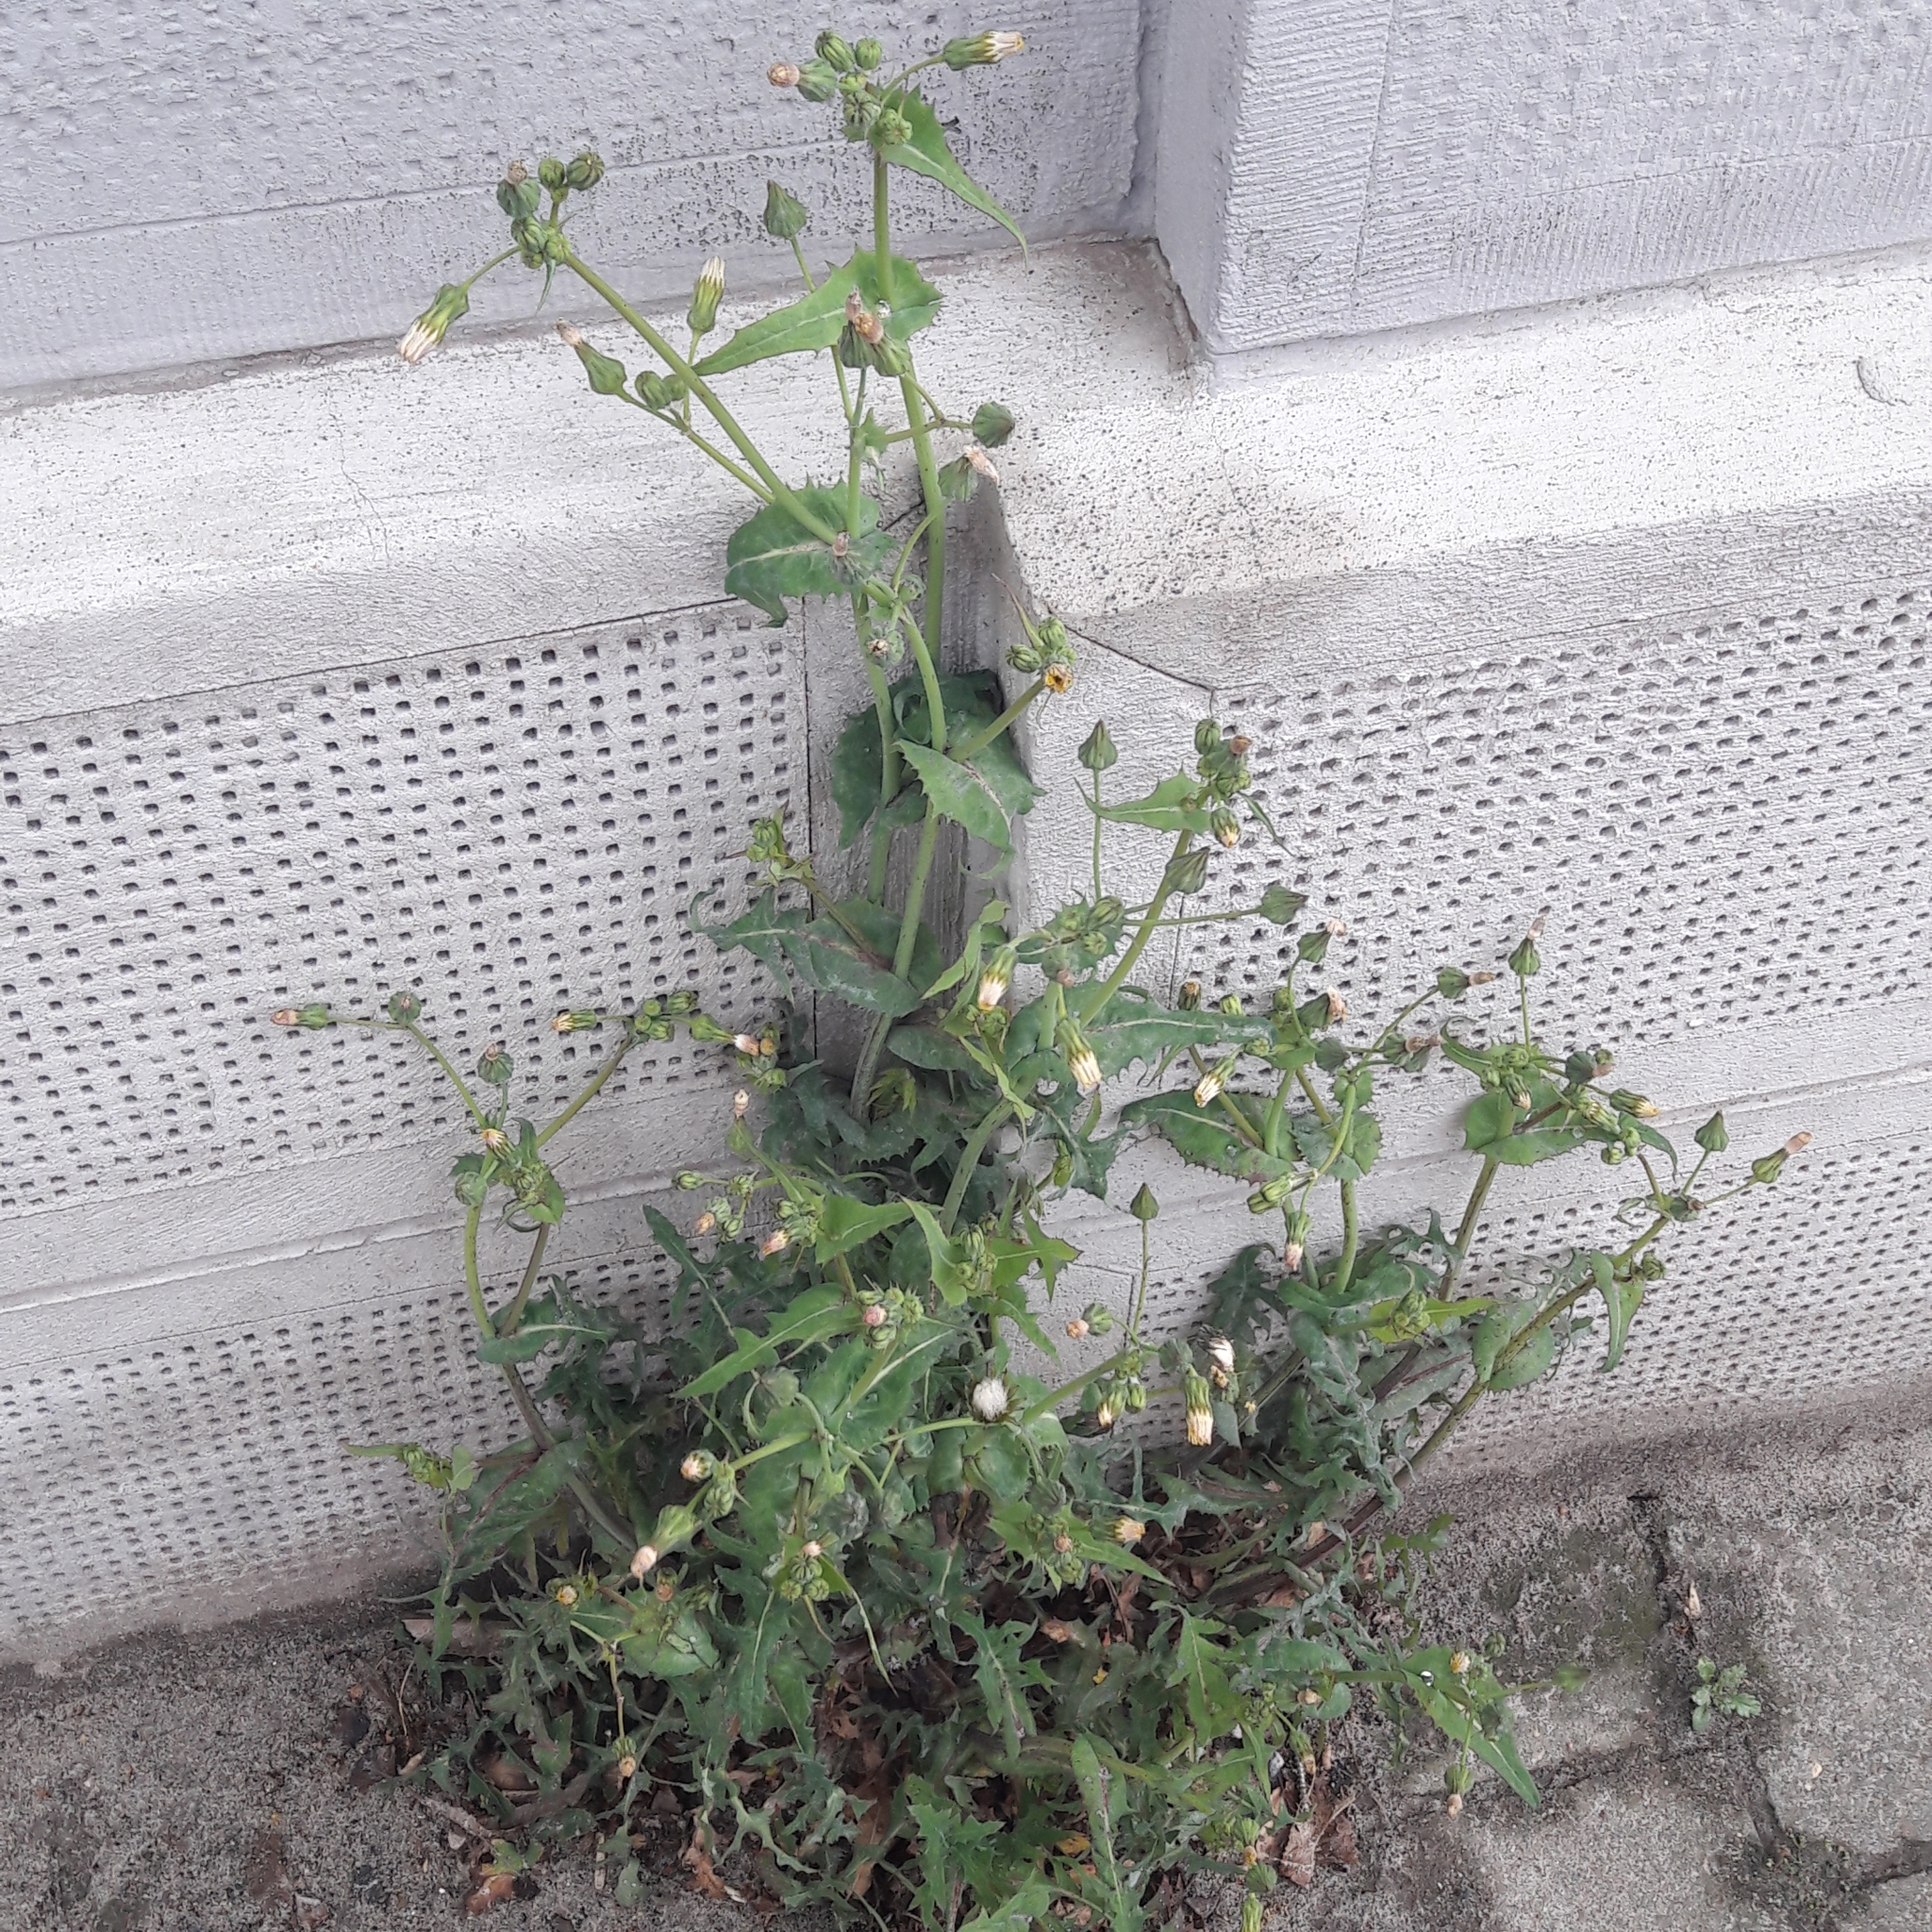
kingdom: Plantae
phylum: Tracheophyta
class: Magnoliopsida
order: Asterales
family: Asteraceae
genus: Sonchus
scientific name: Sonchus oleraceus
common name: Common sowthistle
